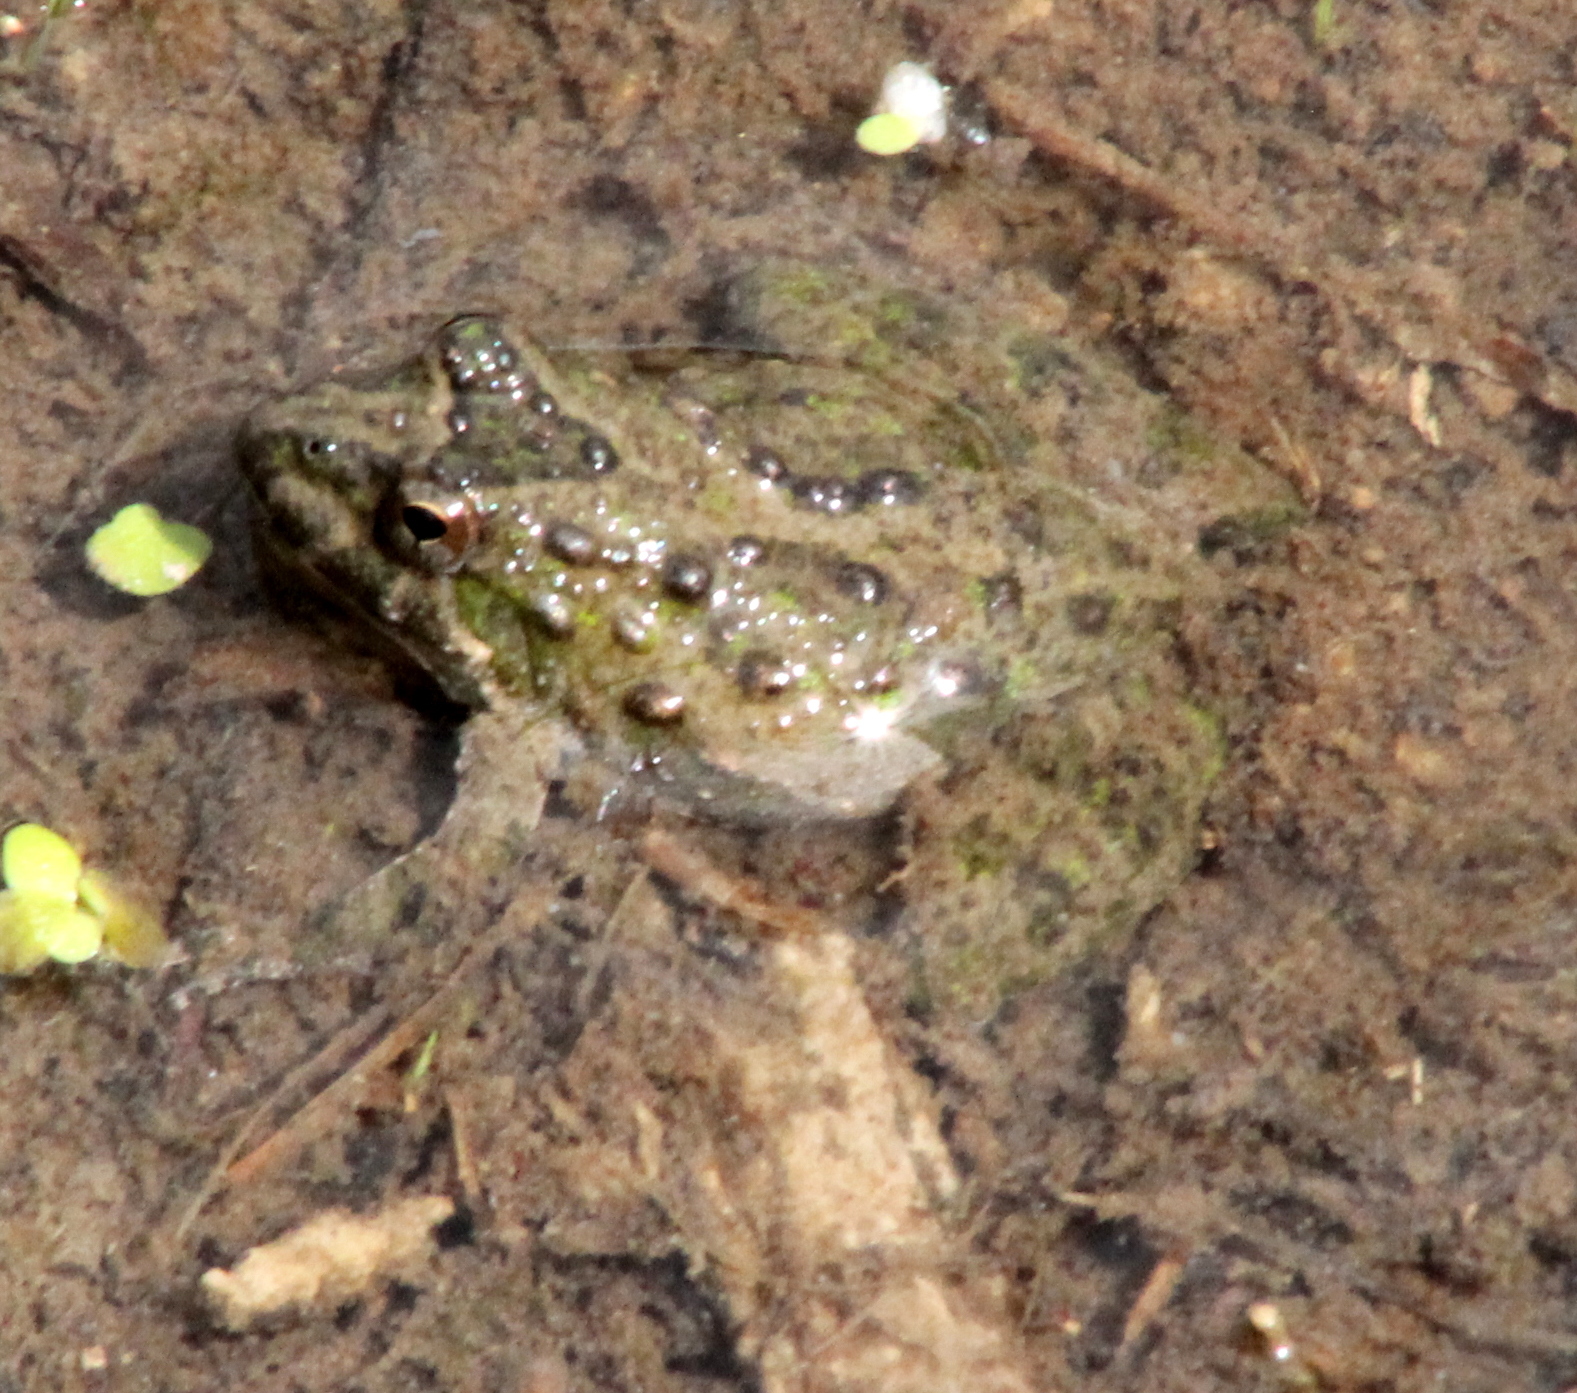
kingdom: Animalia
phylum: Chordata
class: Amphibia
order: Anura
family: Hylidae
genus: Acris
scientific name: Acris blanchardi
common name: Blanchard's cricket frog
